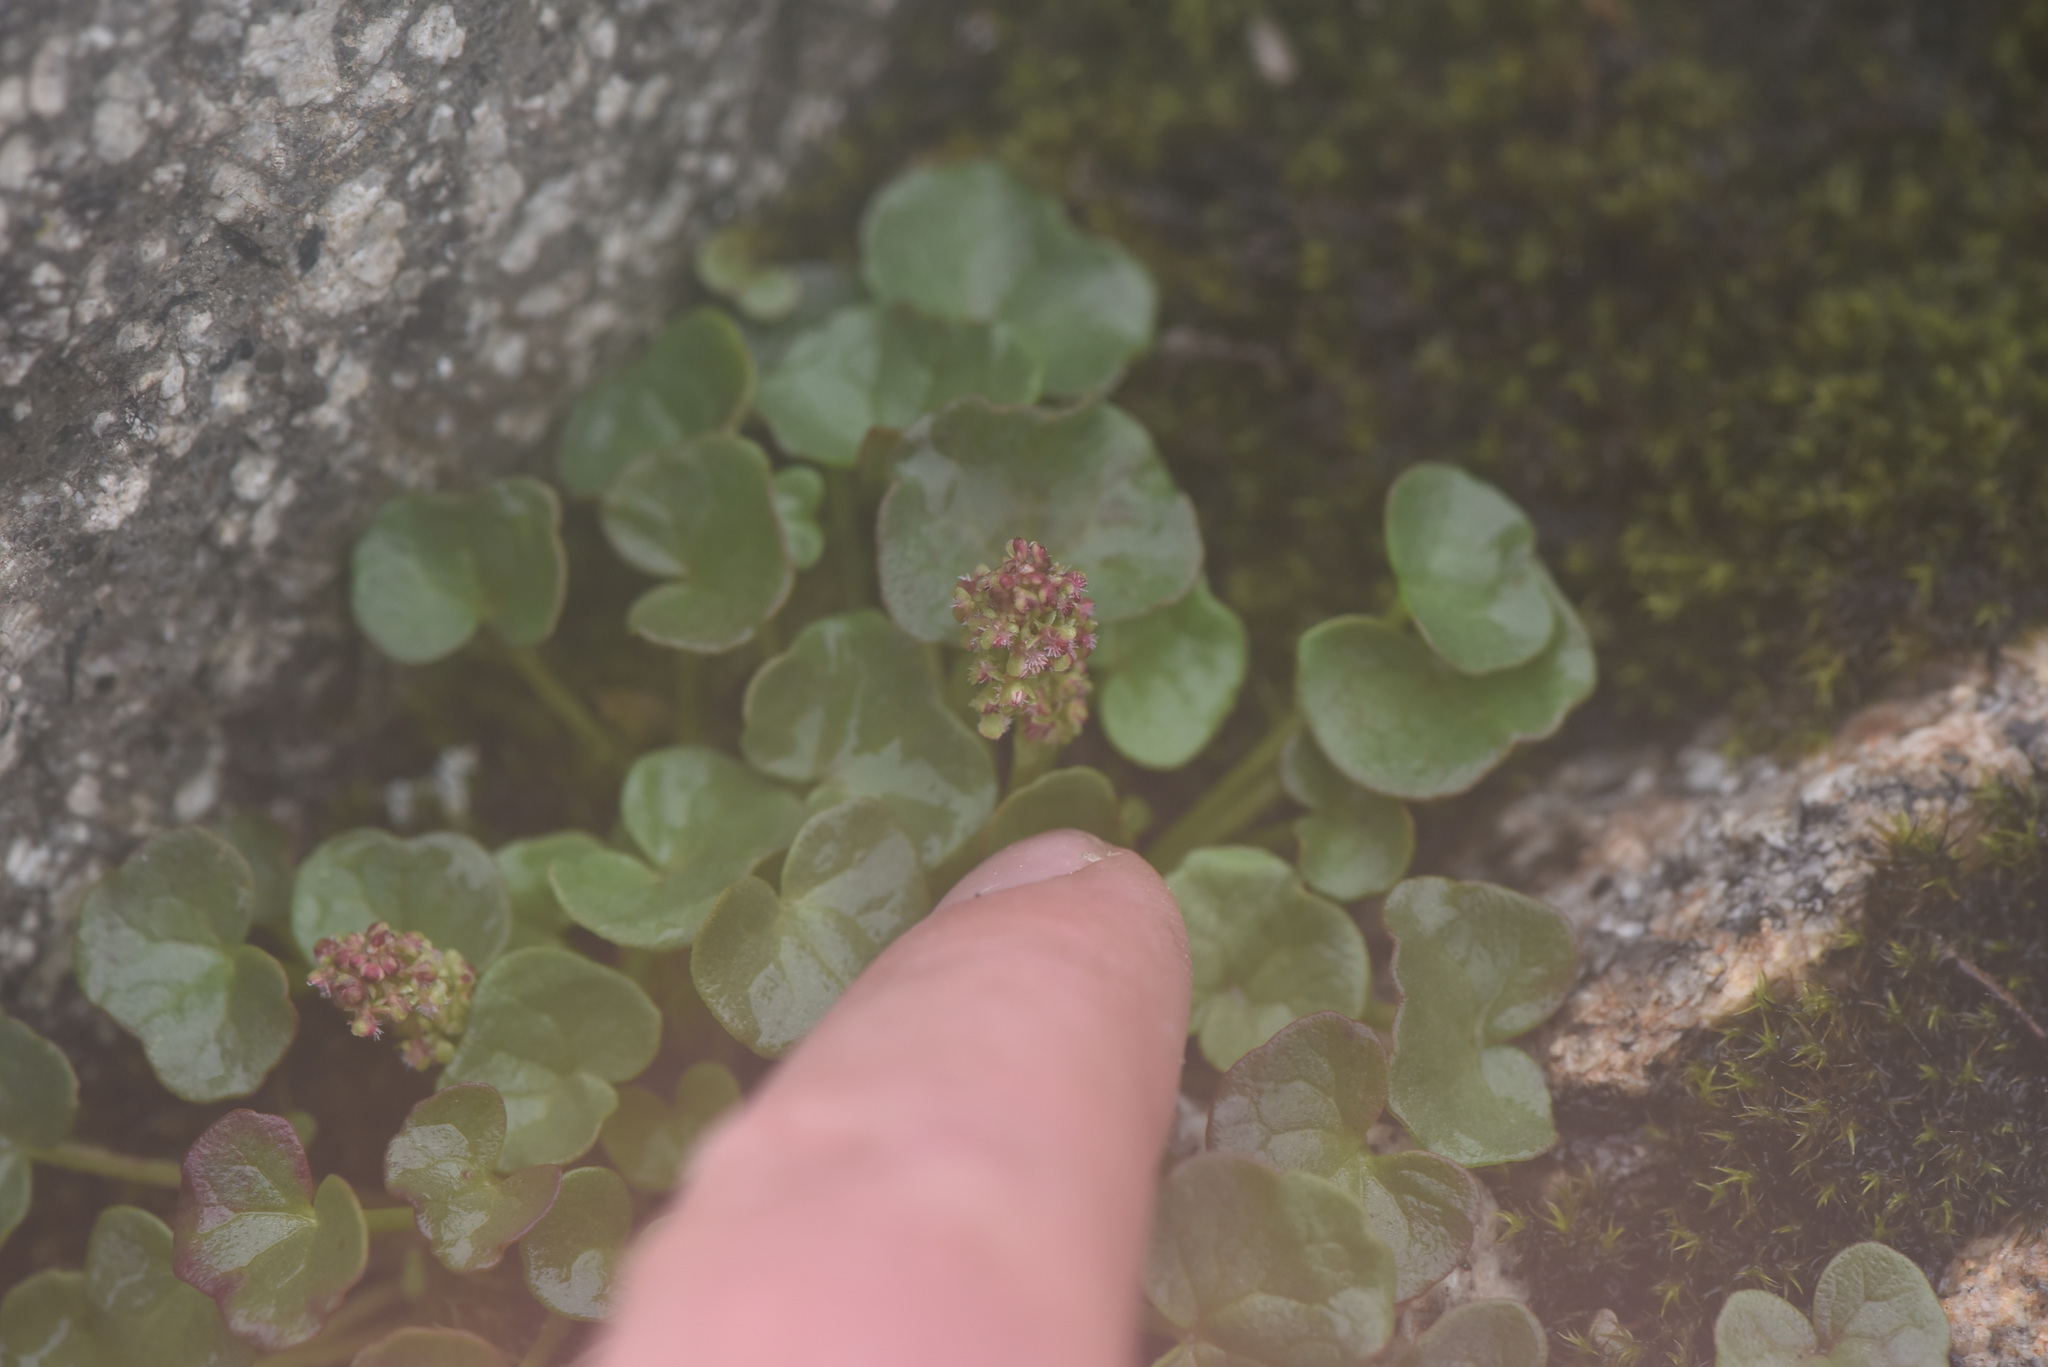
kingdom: Plantae
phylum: Tracheophyta
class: Magnoliopsida
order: Caryophyllales
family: Polygonaceae
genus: Oxyria
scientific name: Oxyria digyna
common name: Alpine mountain-sorrel
